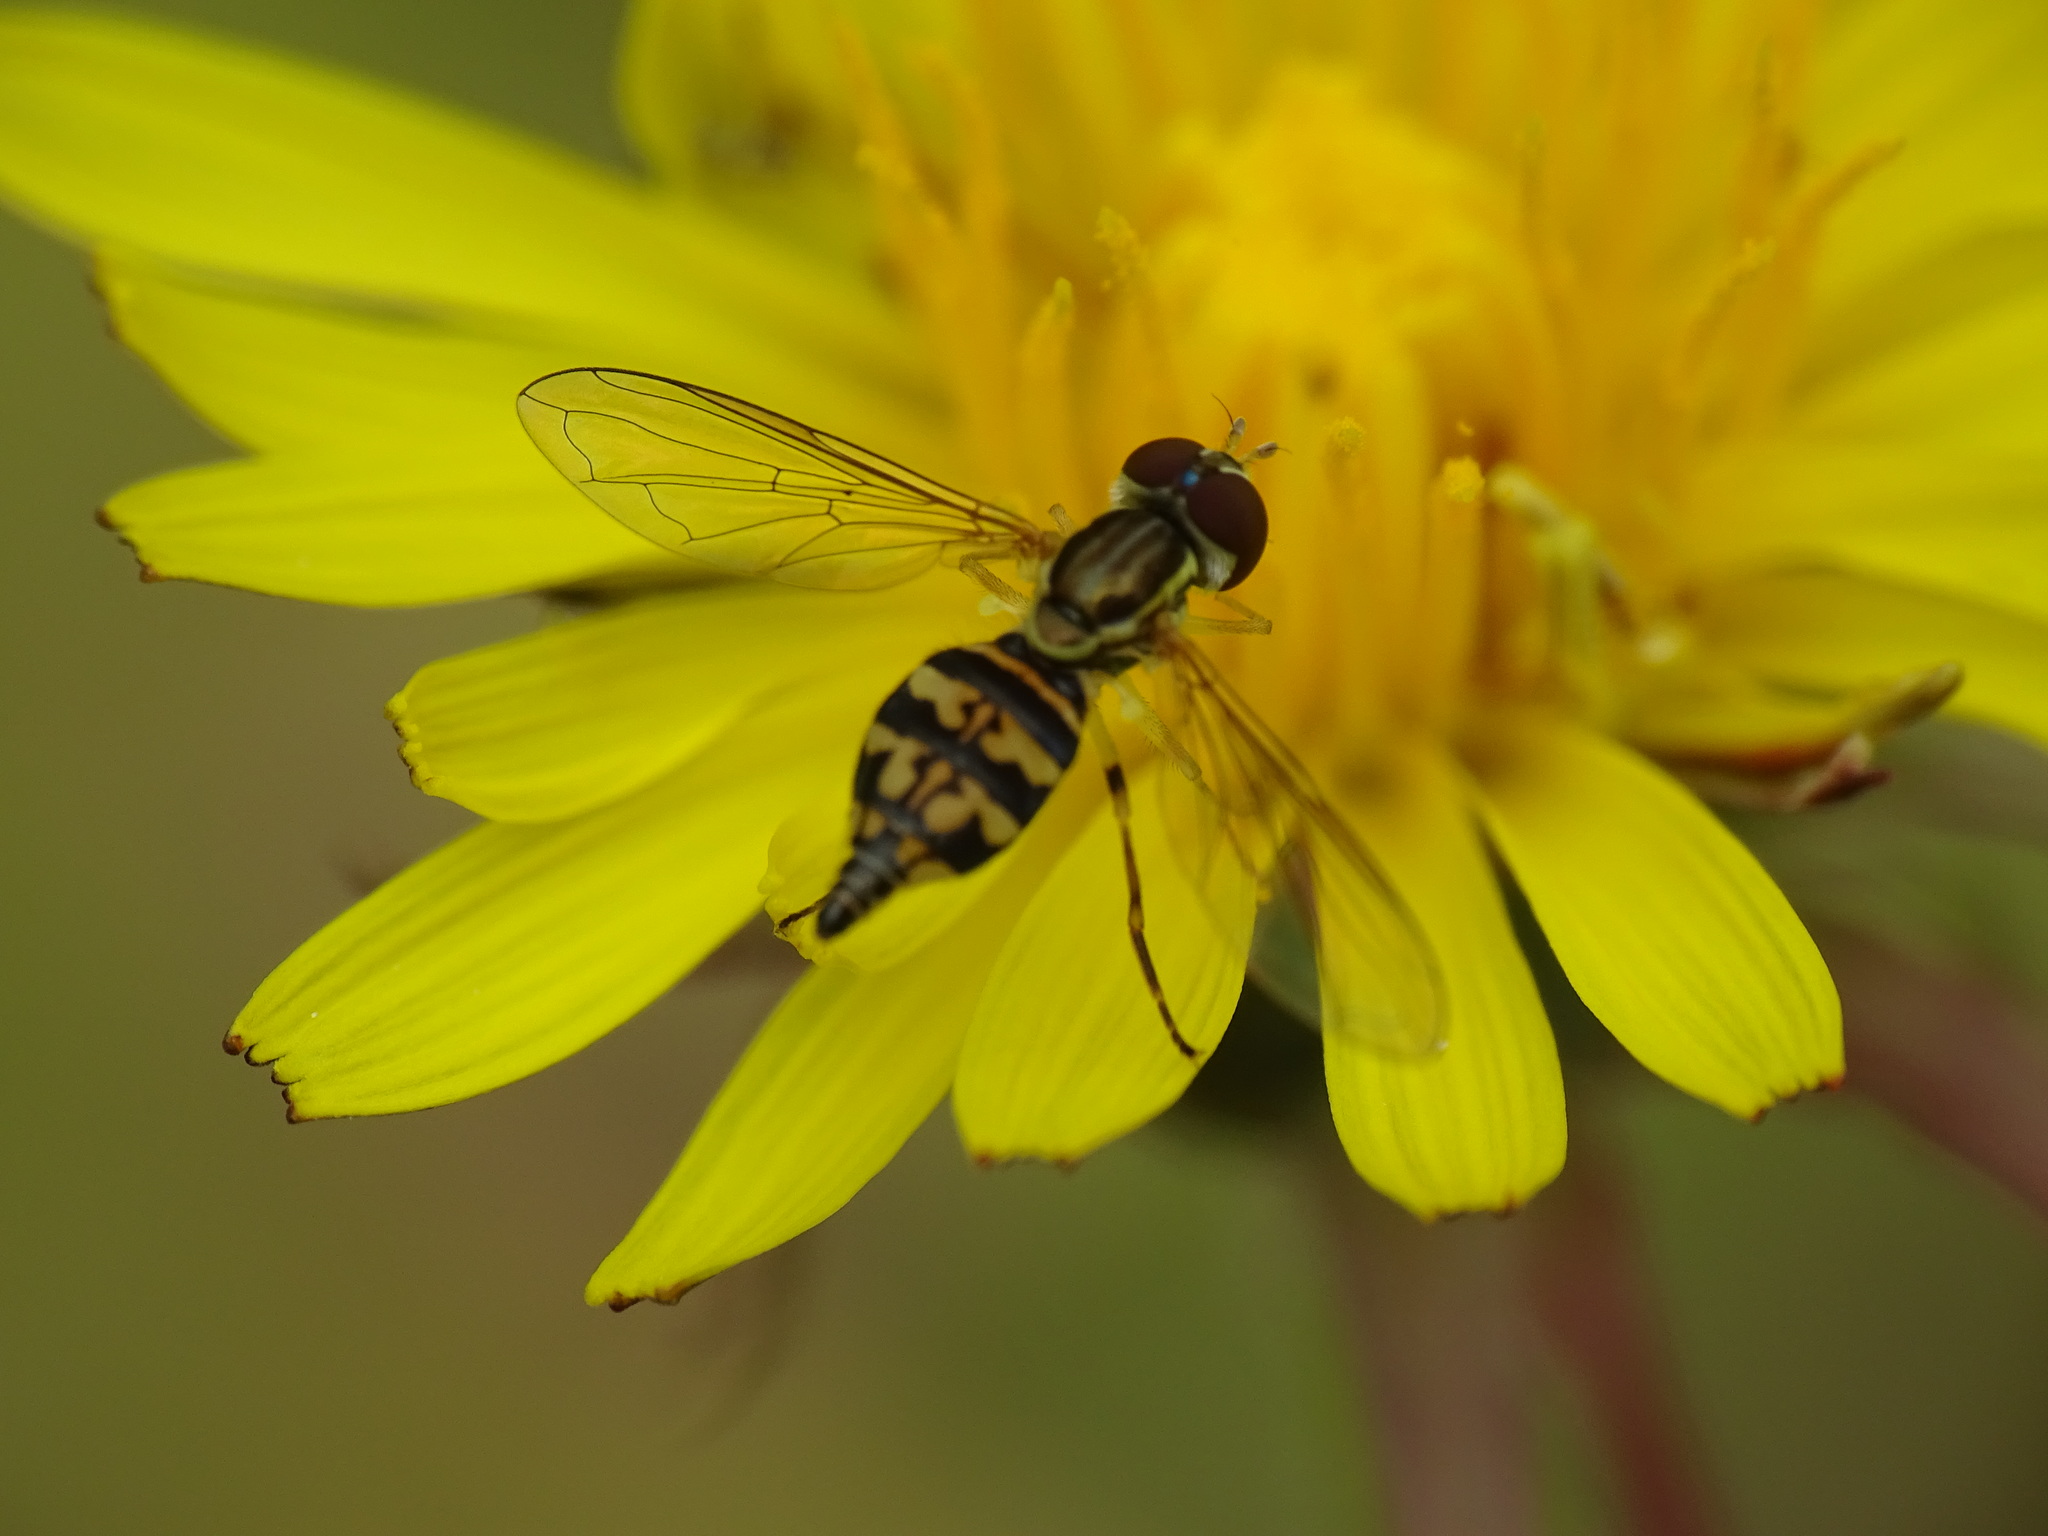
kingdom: Animalia
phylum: Arthropoda
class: Insecta
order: Diptera
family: Syrphidae
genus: Toxomerus
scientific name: Toxomerus geminatus
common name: Eastern calligrapher
